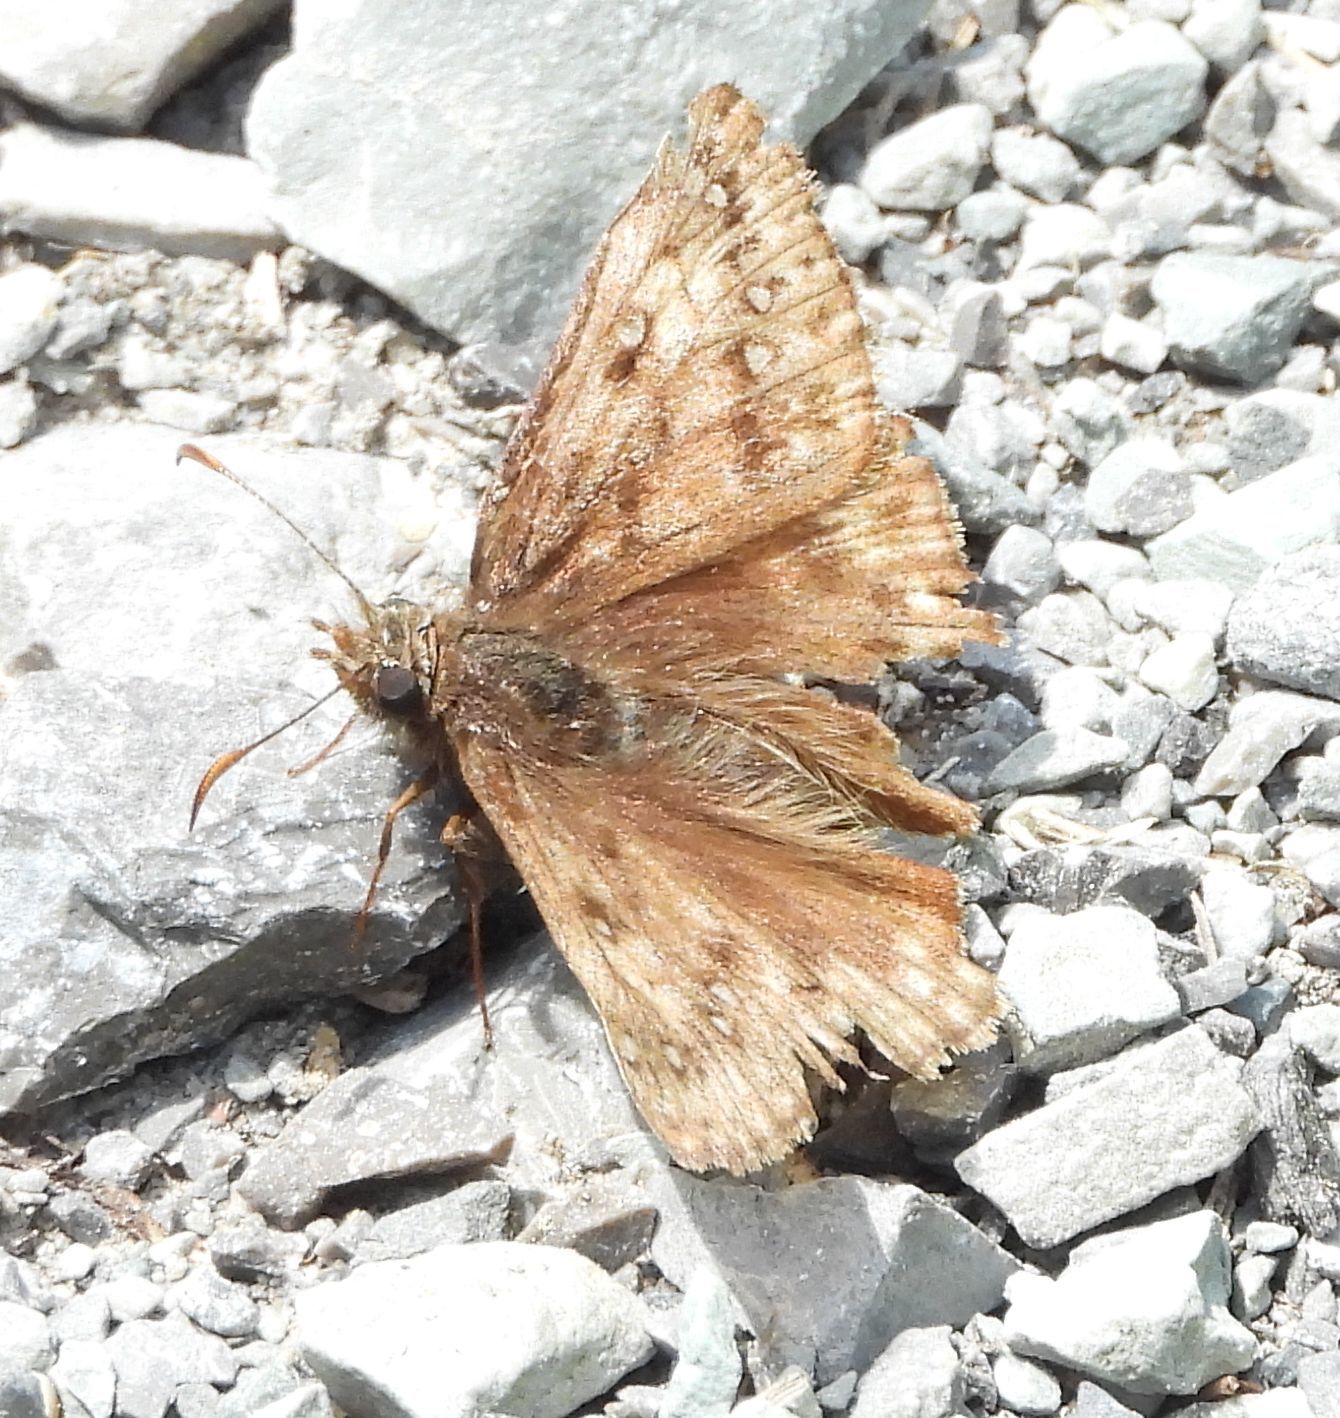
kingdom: Animalia
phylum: Arthropoda
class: Insecta
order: Lepidoptera
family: Hesperiidae
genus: Erynnis
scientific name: Erynnis juvenalis
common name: Juvenal's duskywing
